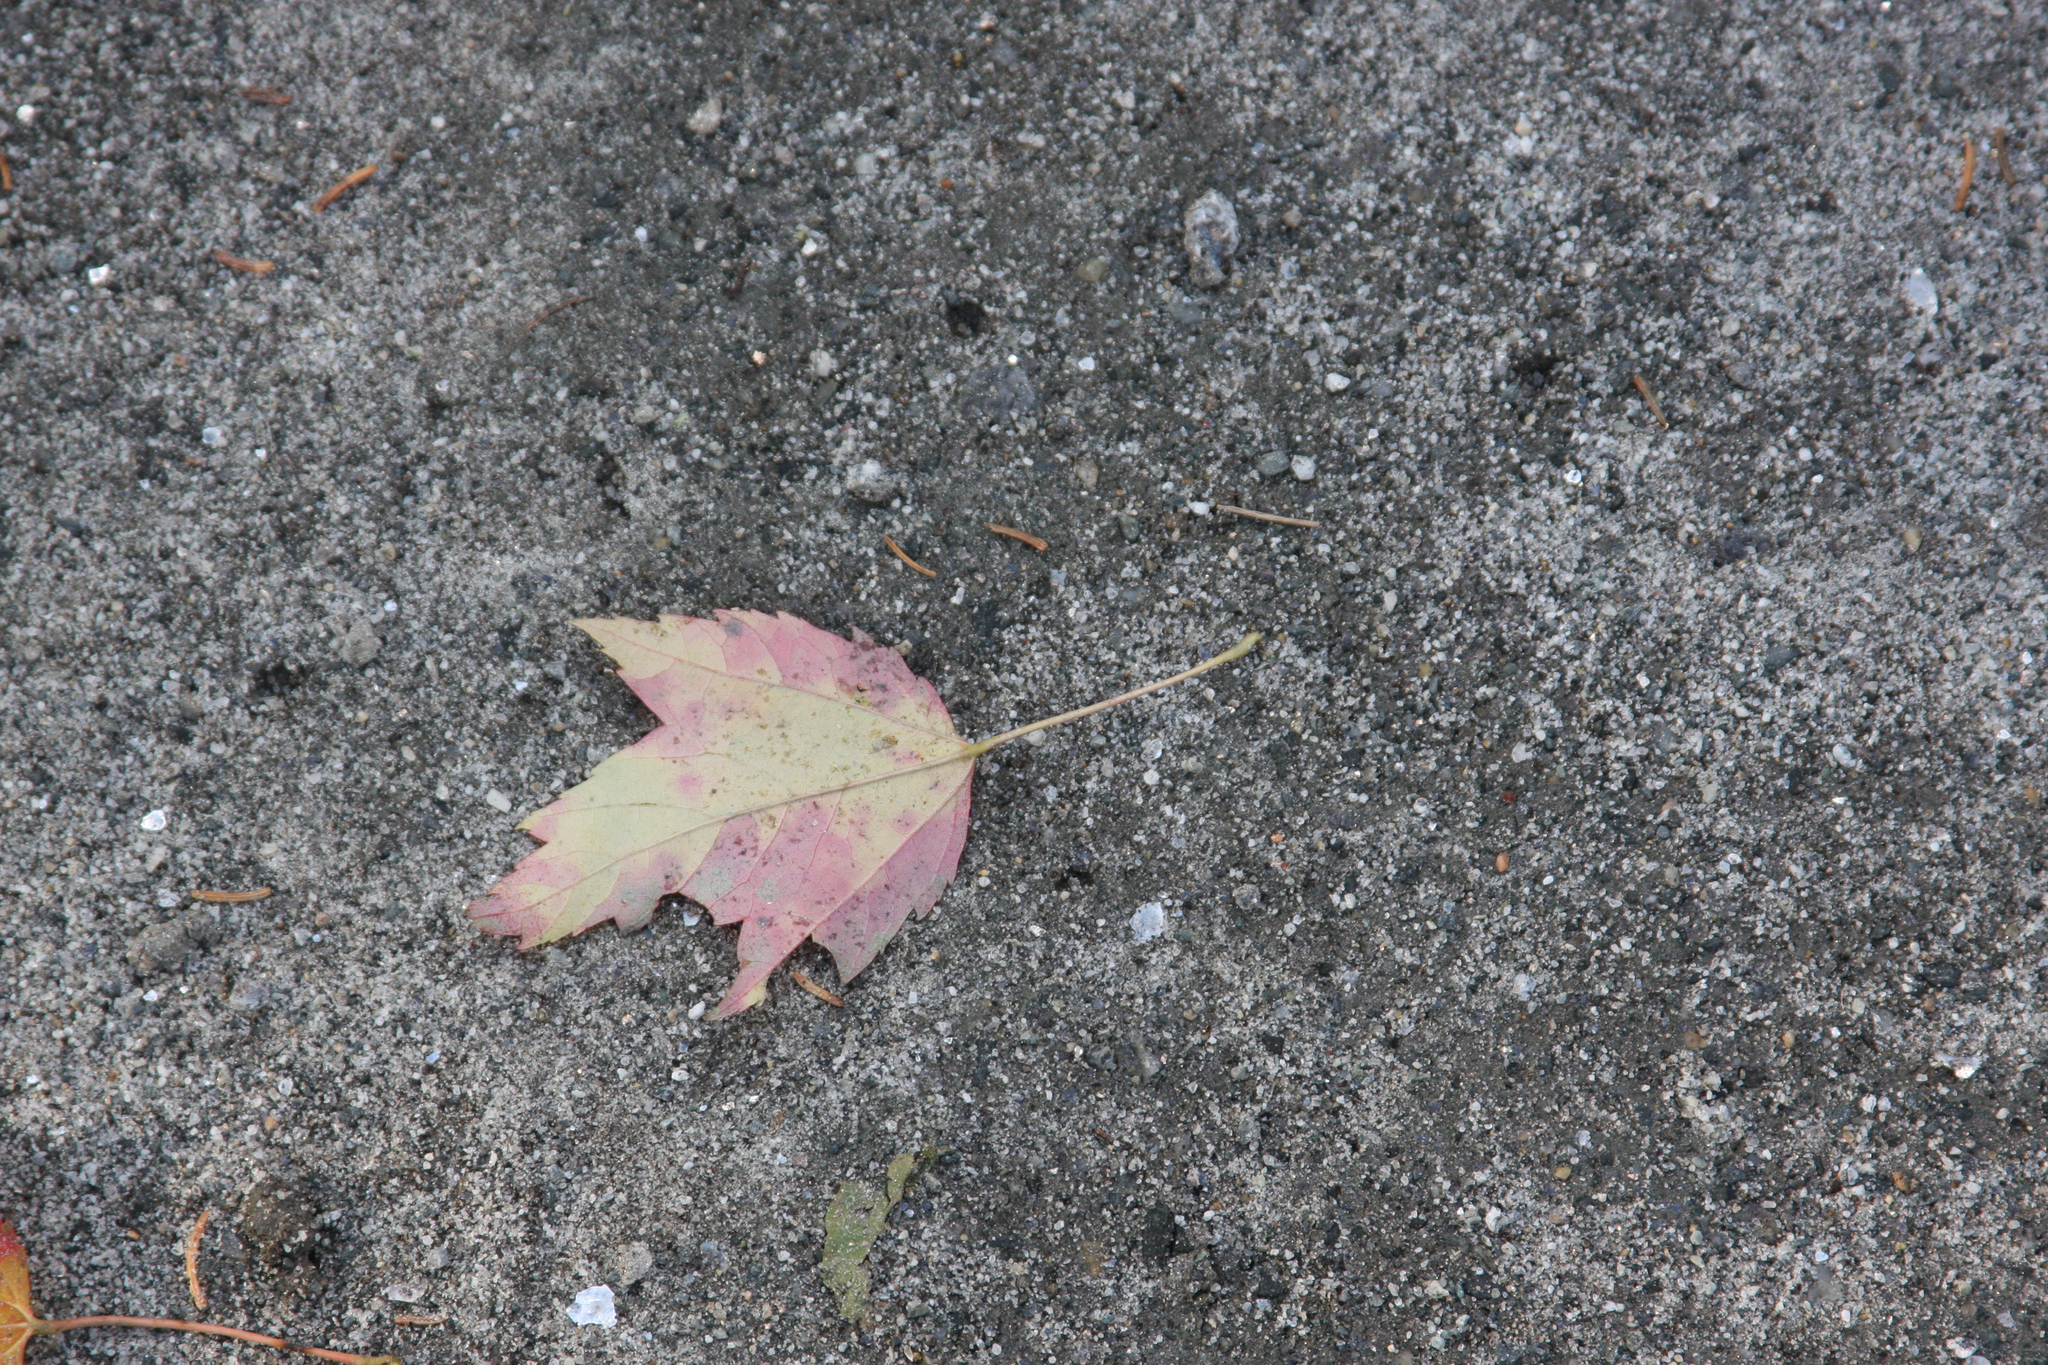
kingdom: Plantae
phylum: Tracheophyta
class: Magnoliopsida
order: Sapindales
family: Sapindaceae
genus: Acer
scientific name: Acer rubrum
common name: Red maple
